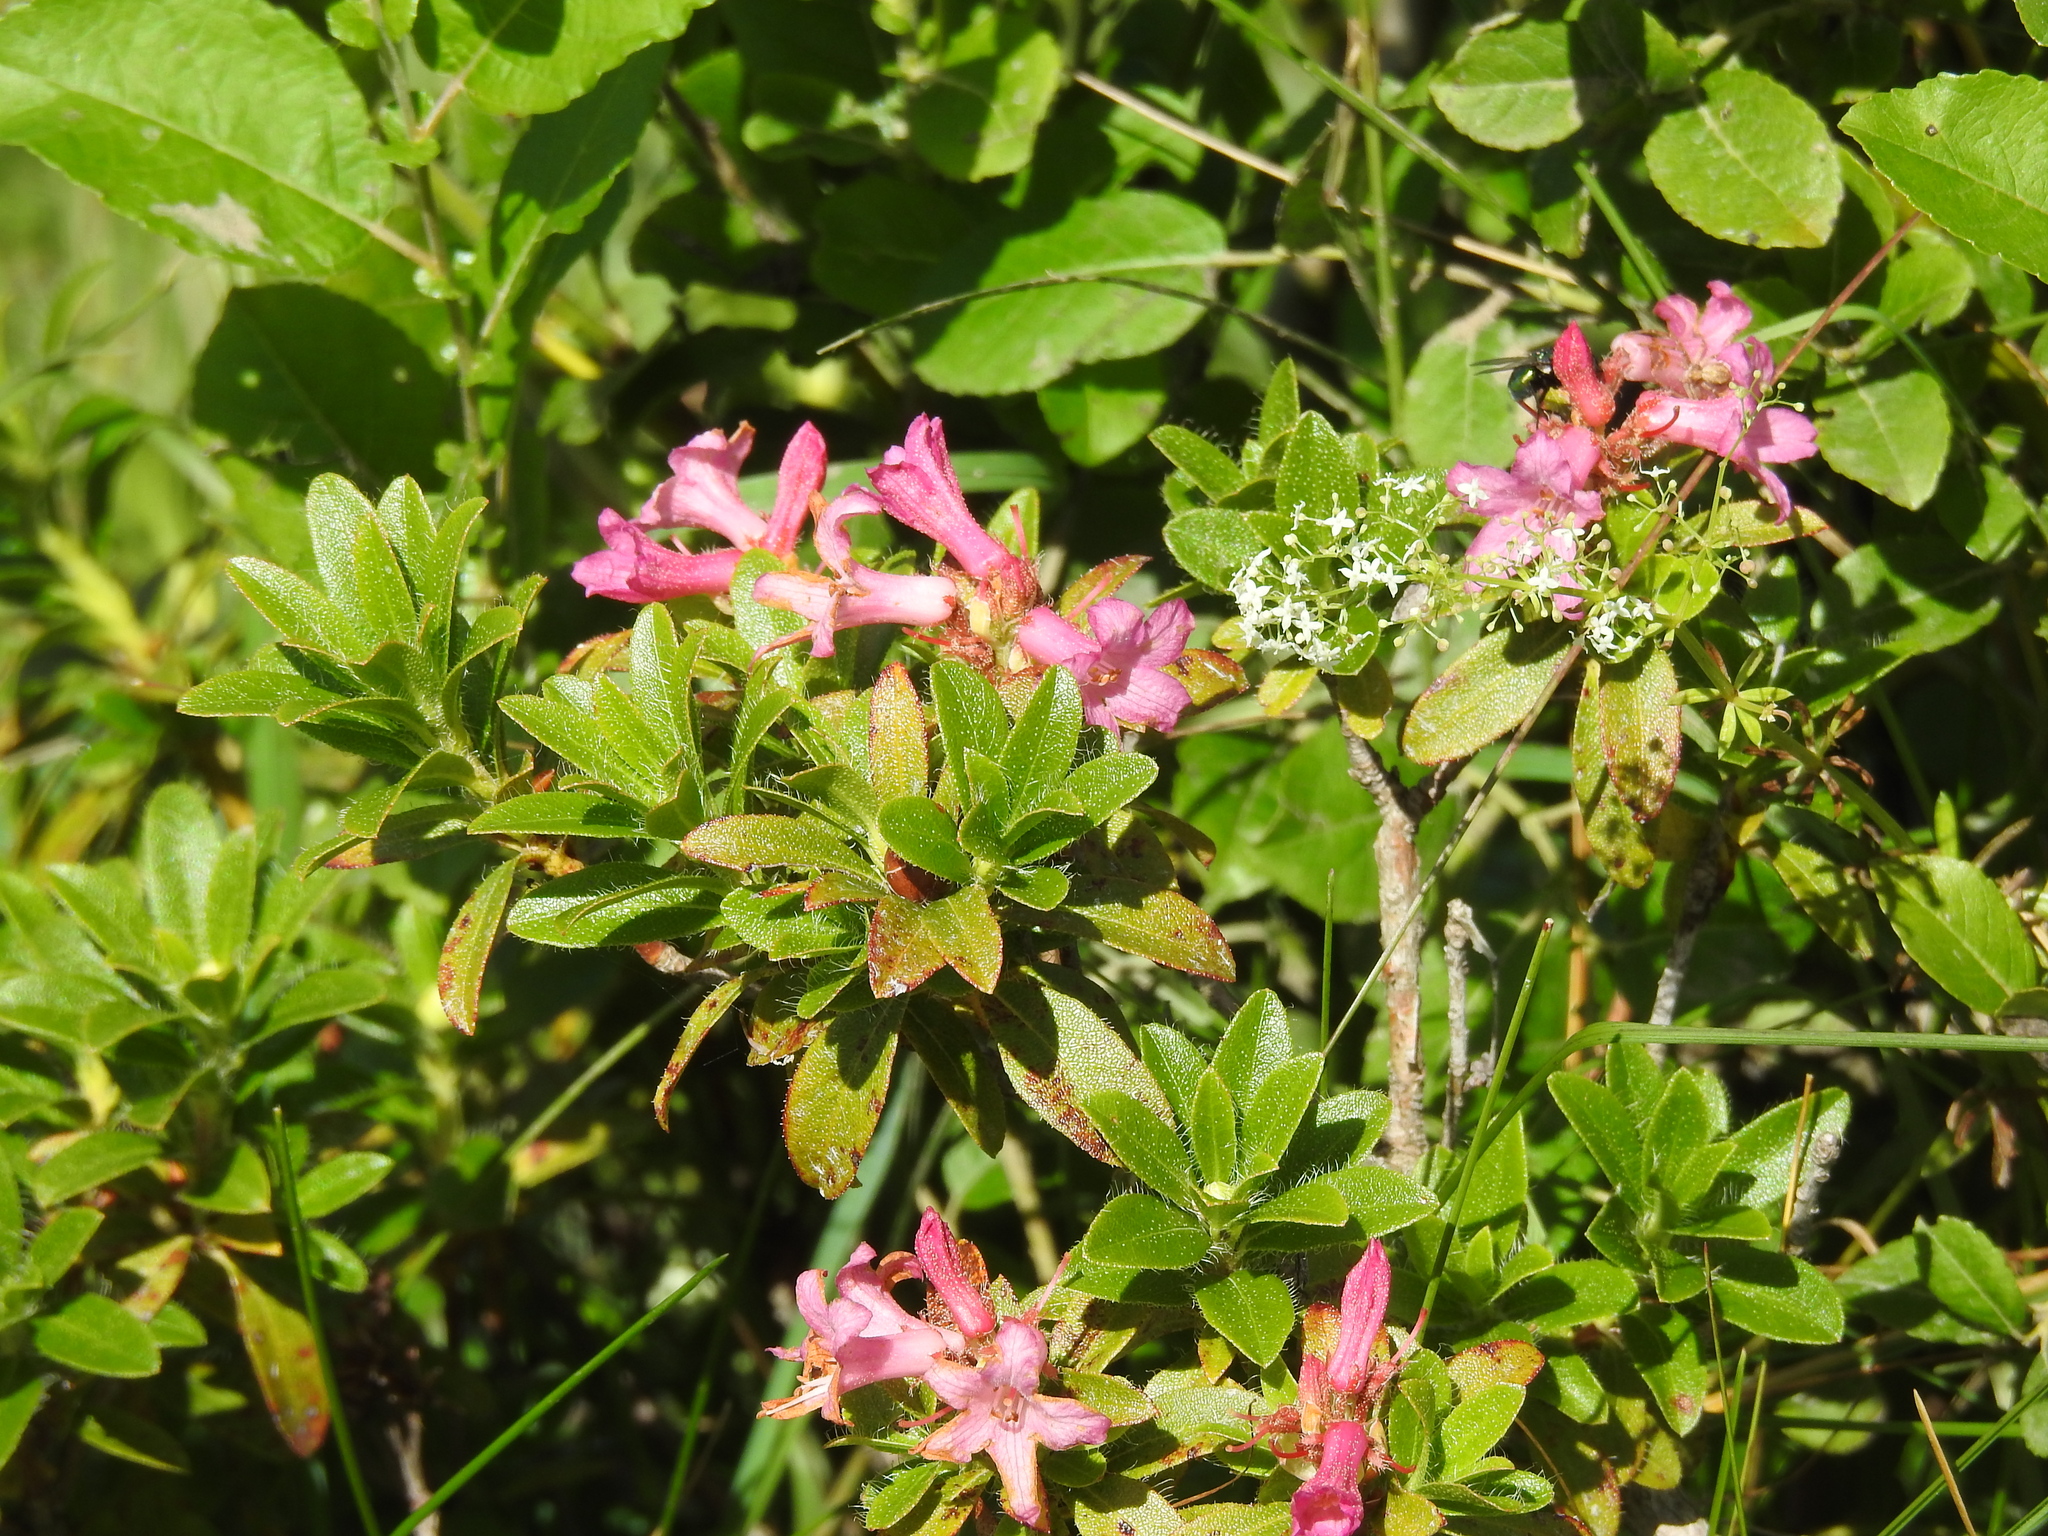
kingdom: Plantae
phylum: Tracheophyta
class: Magnoliopsida
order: Ericales
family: Ericaceae
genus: Rhododendron
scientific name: Rhododendron hirsutum
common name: Hairy alpenrose
